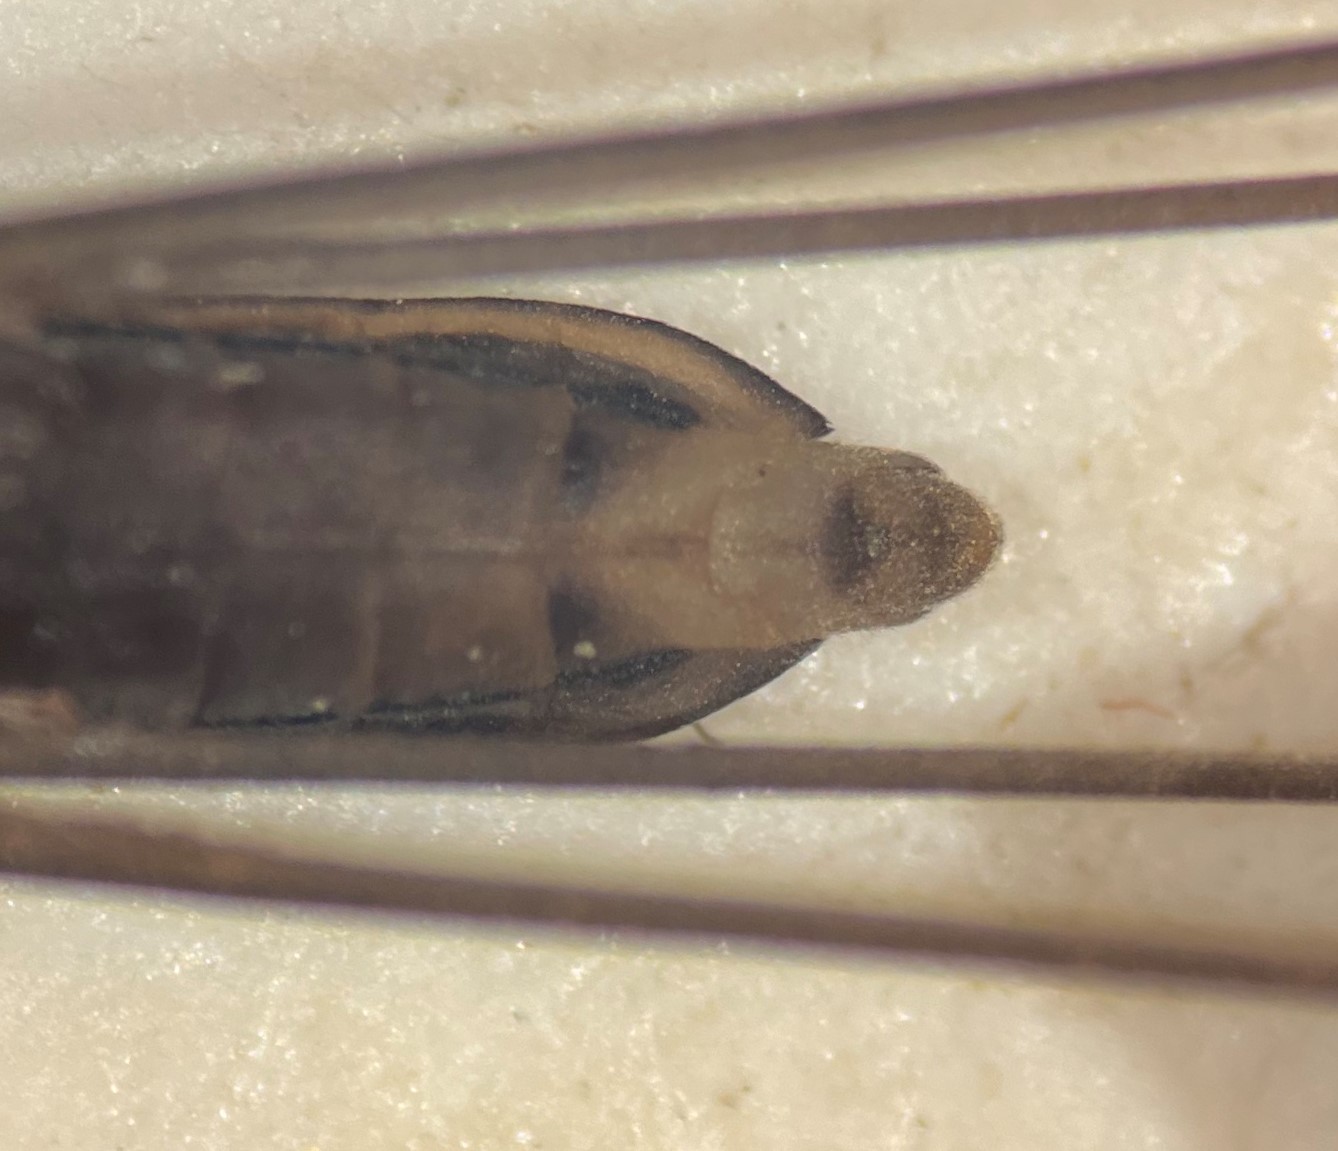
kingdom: Animalia
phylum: Arthropoda
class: Insecta
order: Hemiptera
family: Gerridae
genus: Gerris
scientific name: Gerris insperatus
